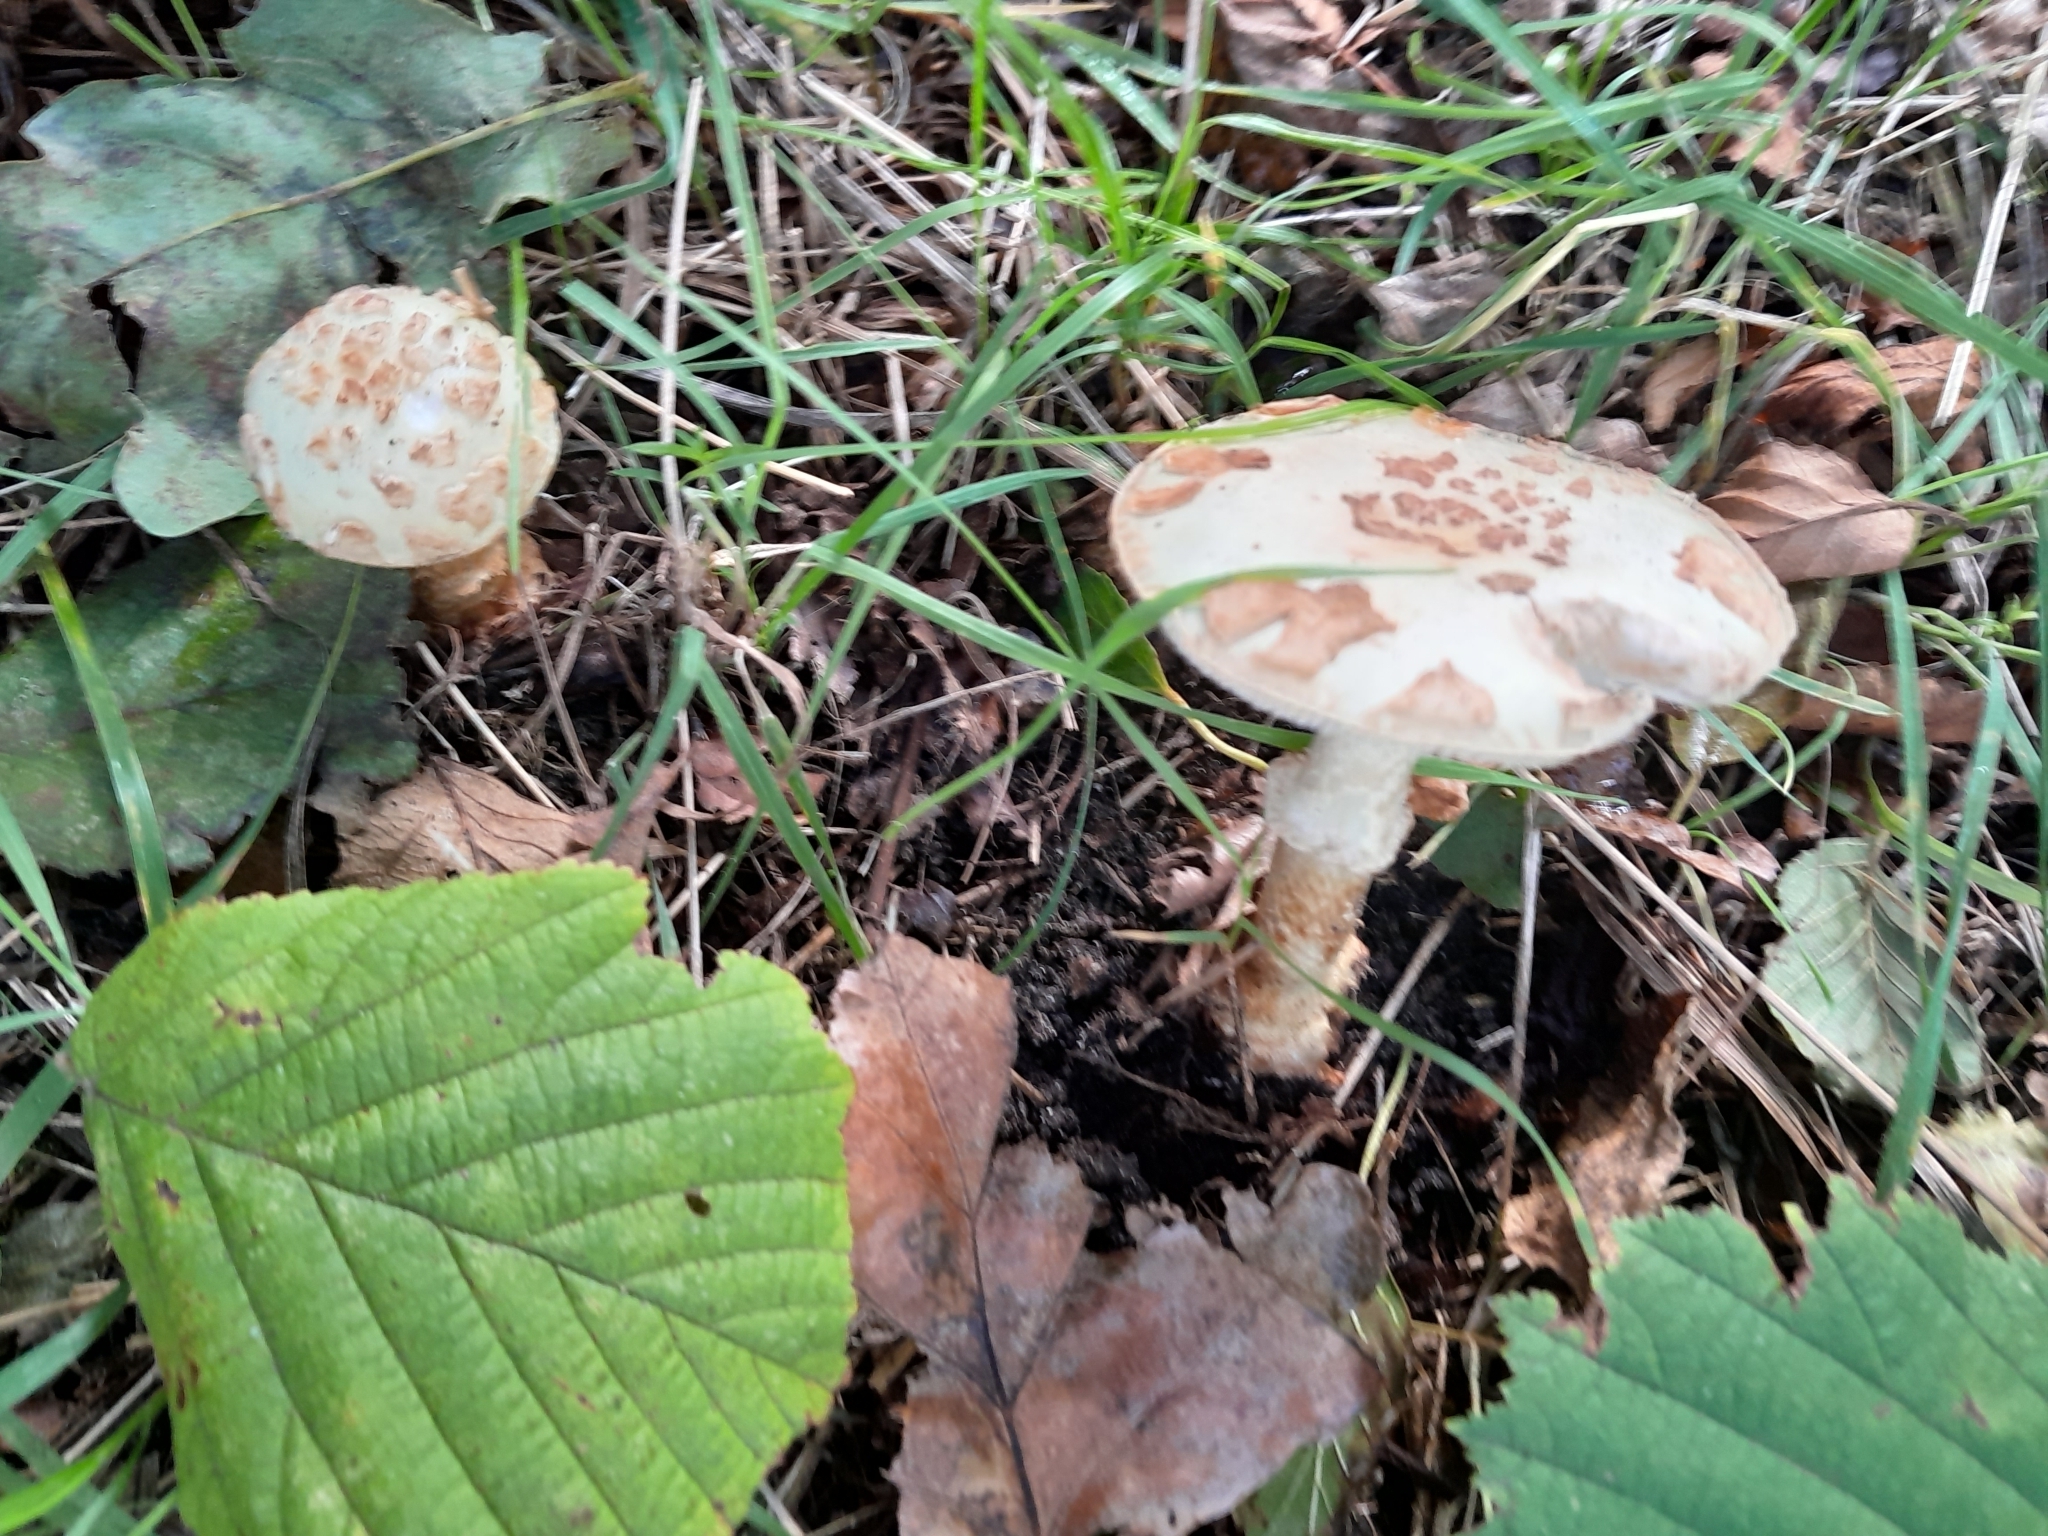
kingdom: Fungi
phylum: Basidiomycota
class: Agaricomycetes
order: Agaricales
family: Amanitaceae
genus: Amanita
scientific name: Amanita citrina
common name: False death-cap
